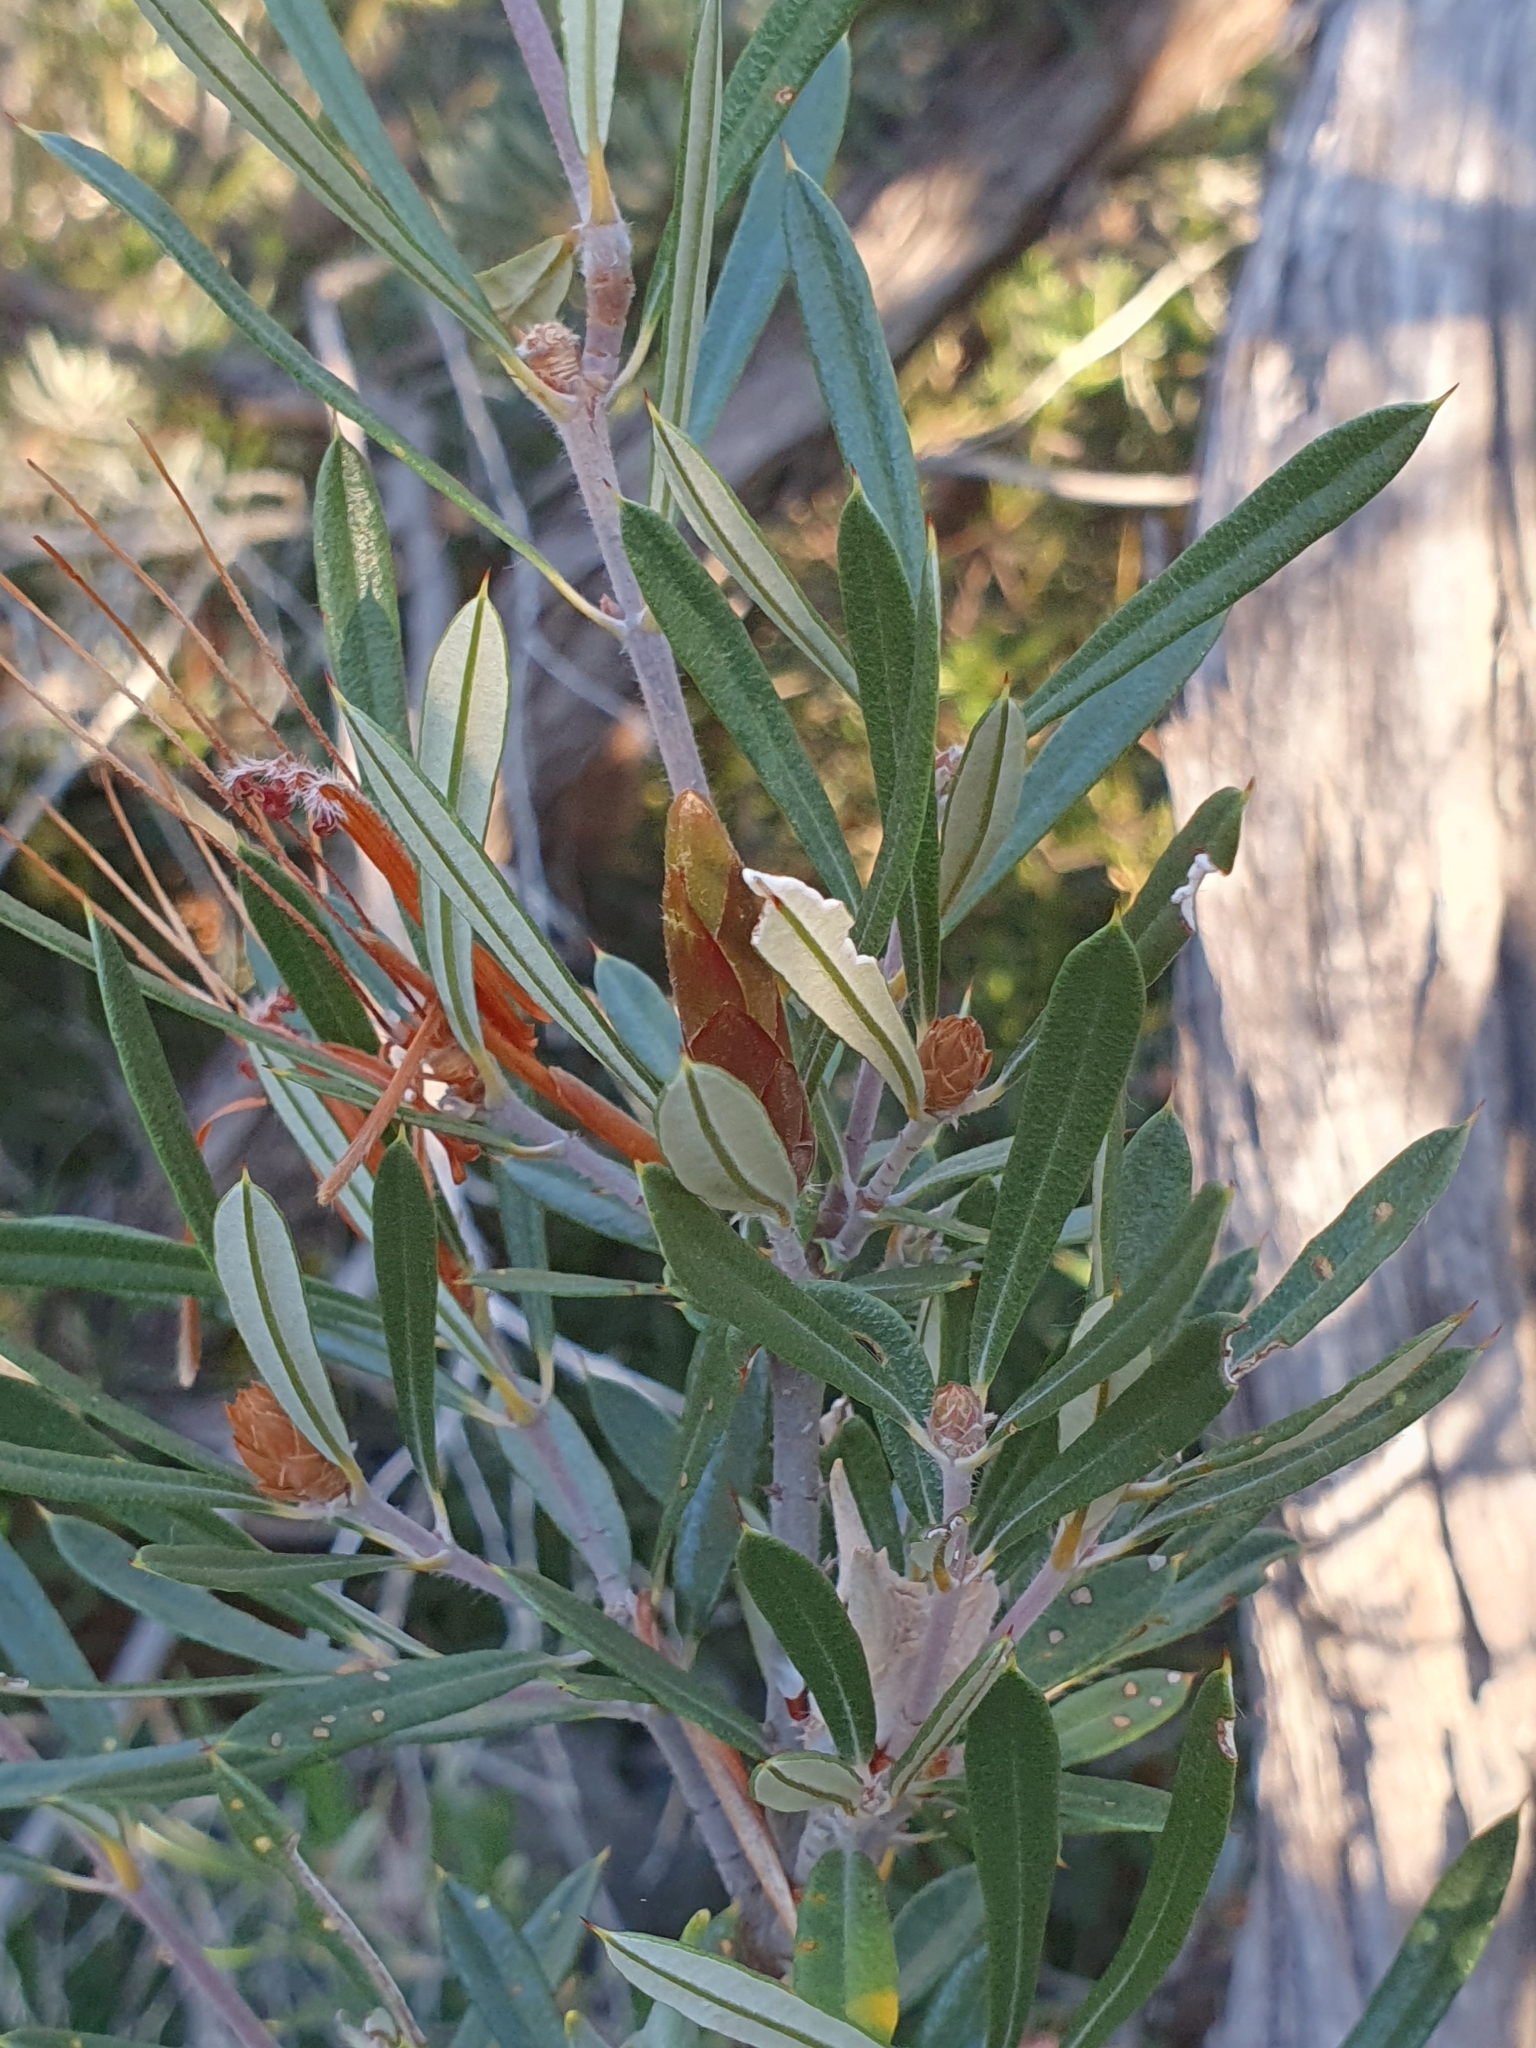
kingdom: Plantae
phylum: Tracheophyta
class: Magnoliopsida
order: Proteales
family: Proteaceae
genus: Lambertia
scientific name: Lambertia formosa
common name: Mountain-devil
